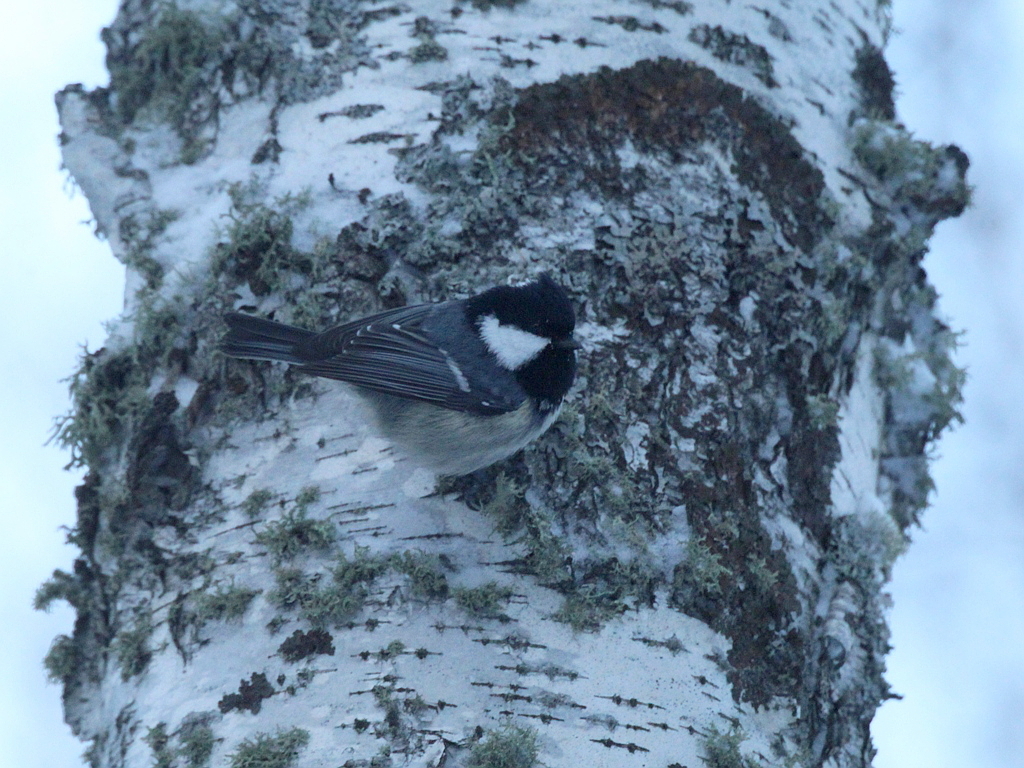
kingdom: Animalia
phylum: Chordata
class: Aves
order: Passeriformes
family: Paridae
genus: Periparus
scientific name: Periparus ater
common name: Coal tit
